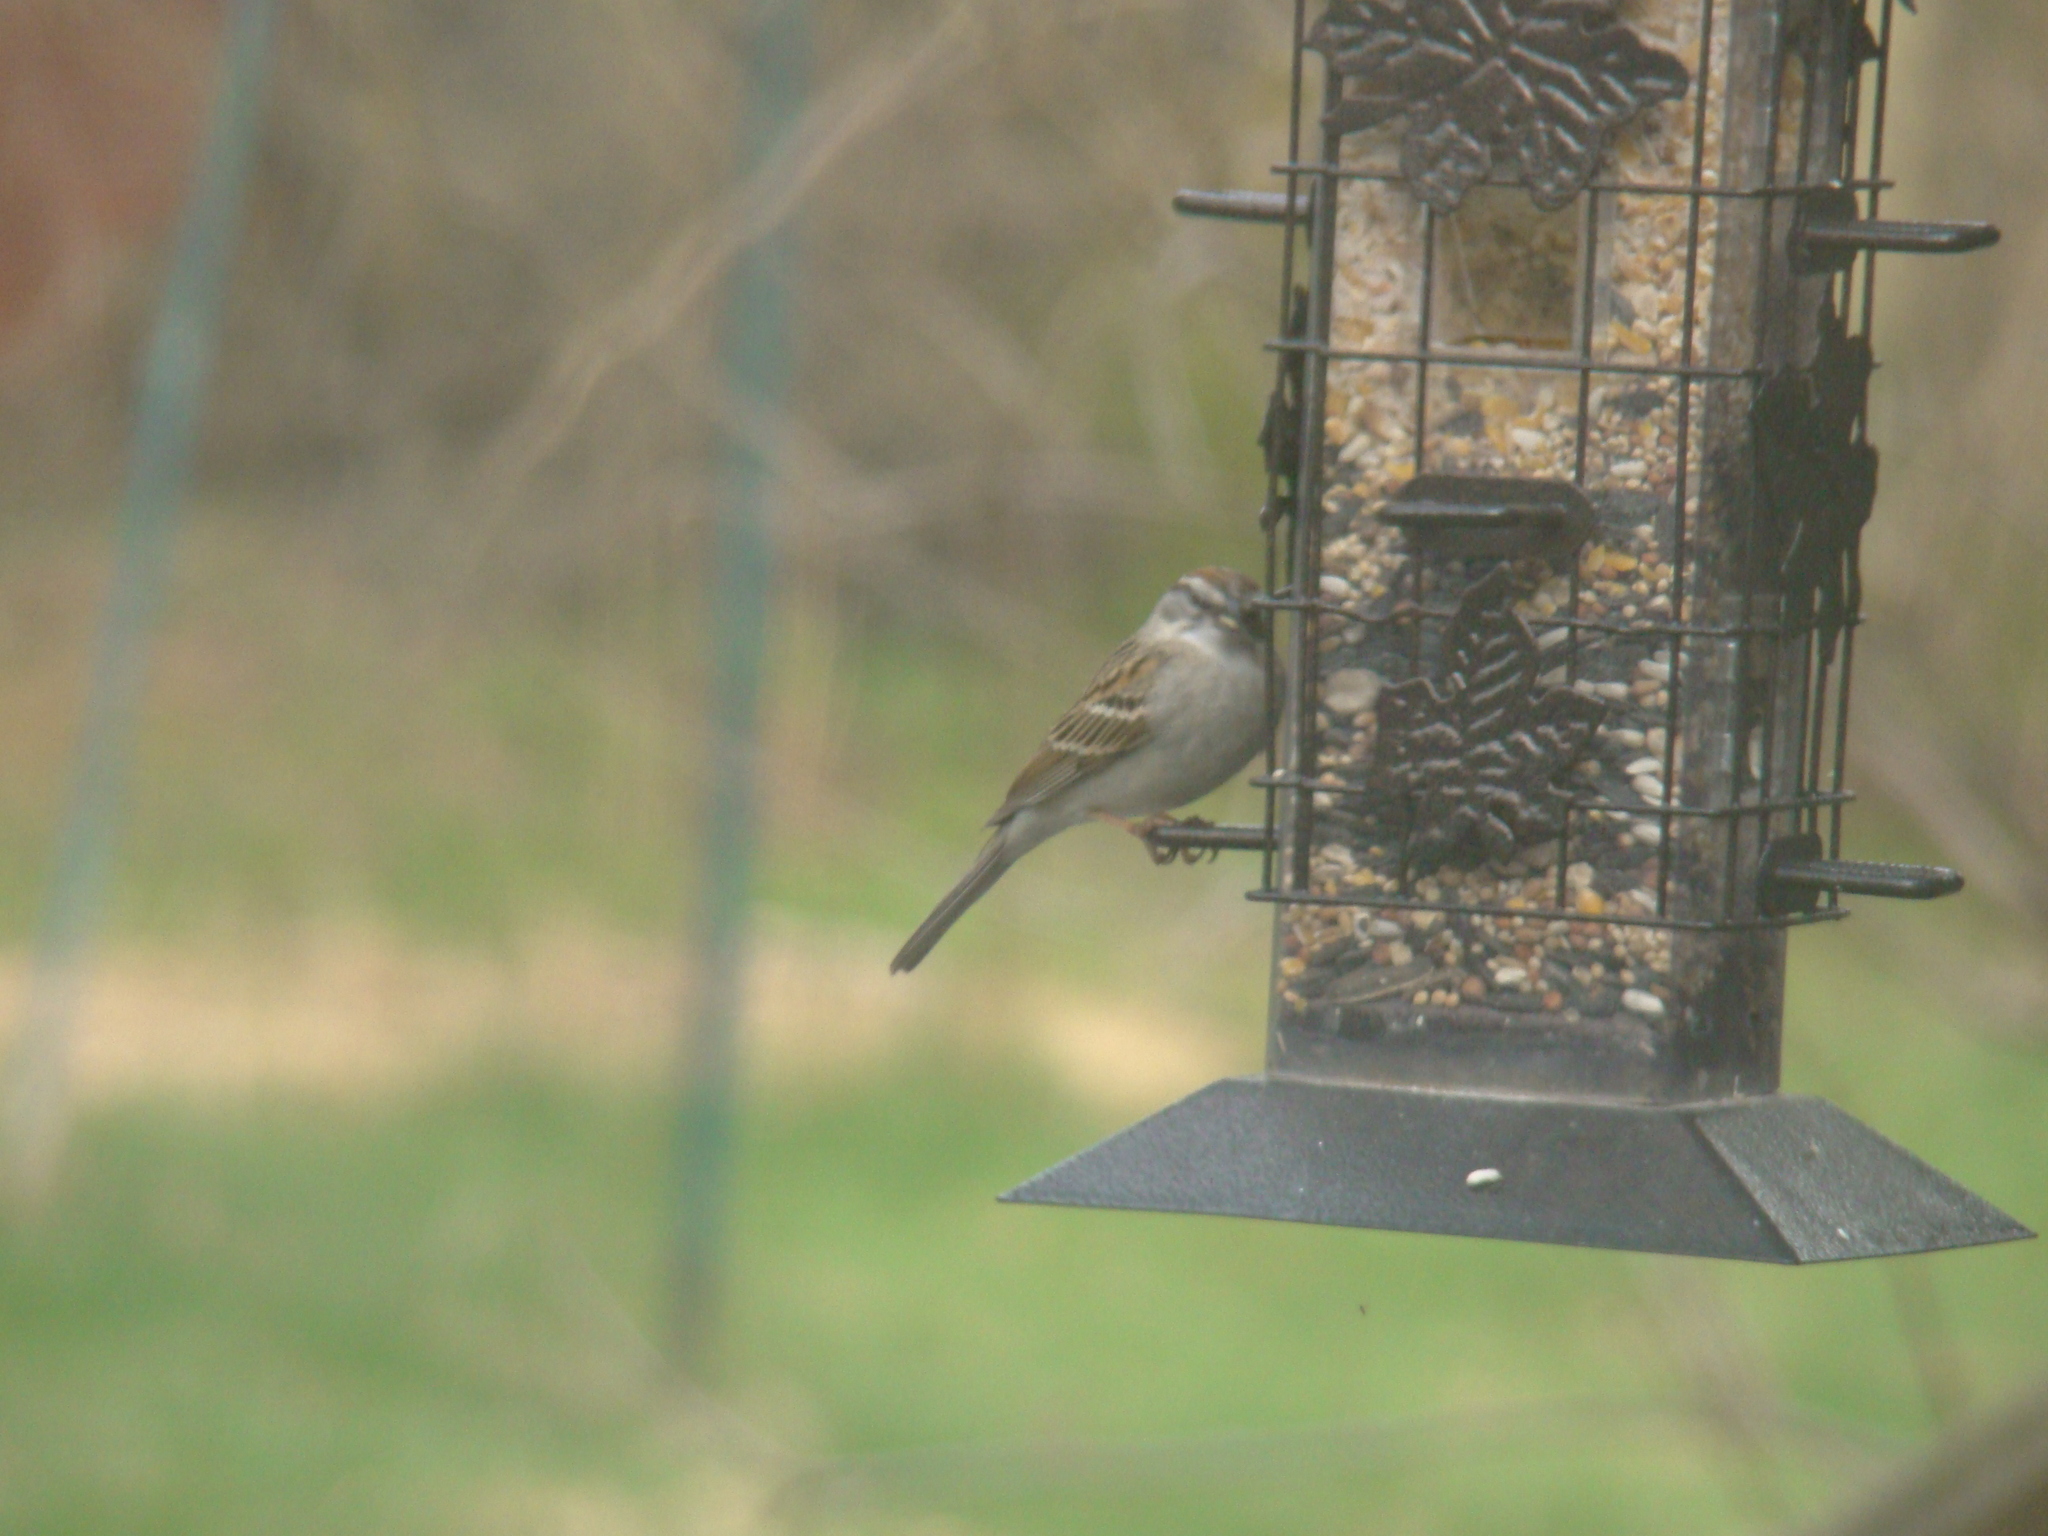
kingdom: Animalia
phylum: Chordata
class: Aves
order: Passeriformes
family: Passerellidae
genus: Spizella
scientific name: Spizella passerina
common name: Chipping sparrow
